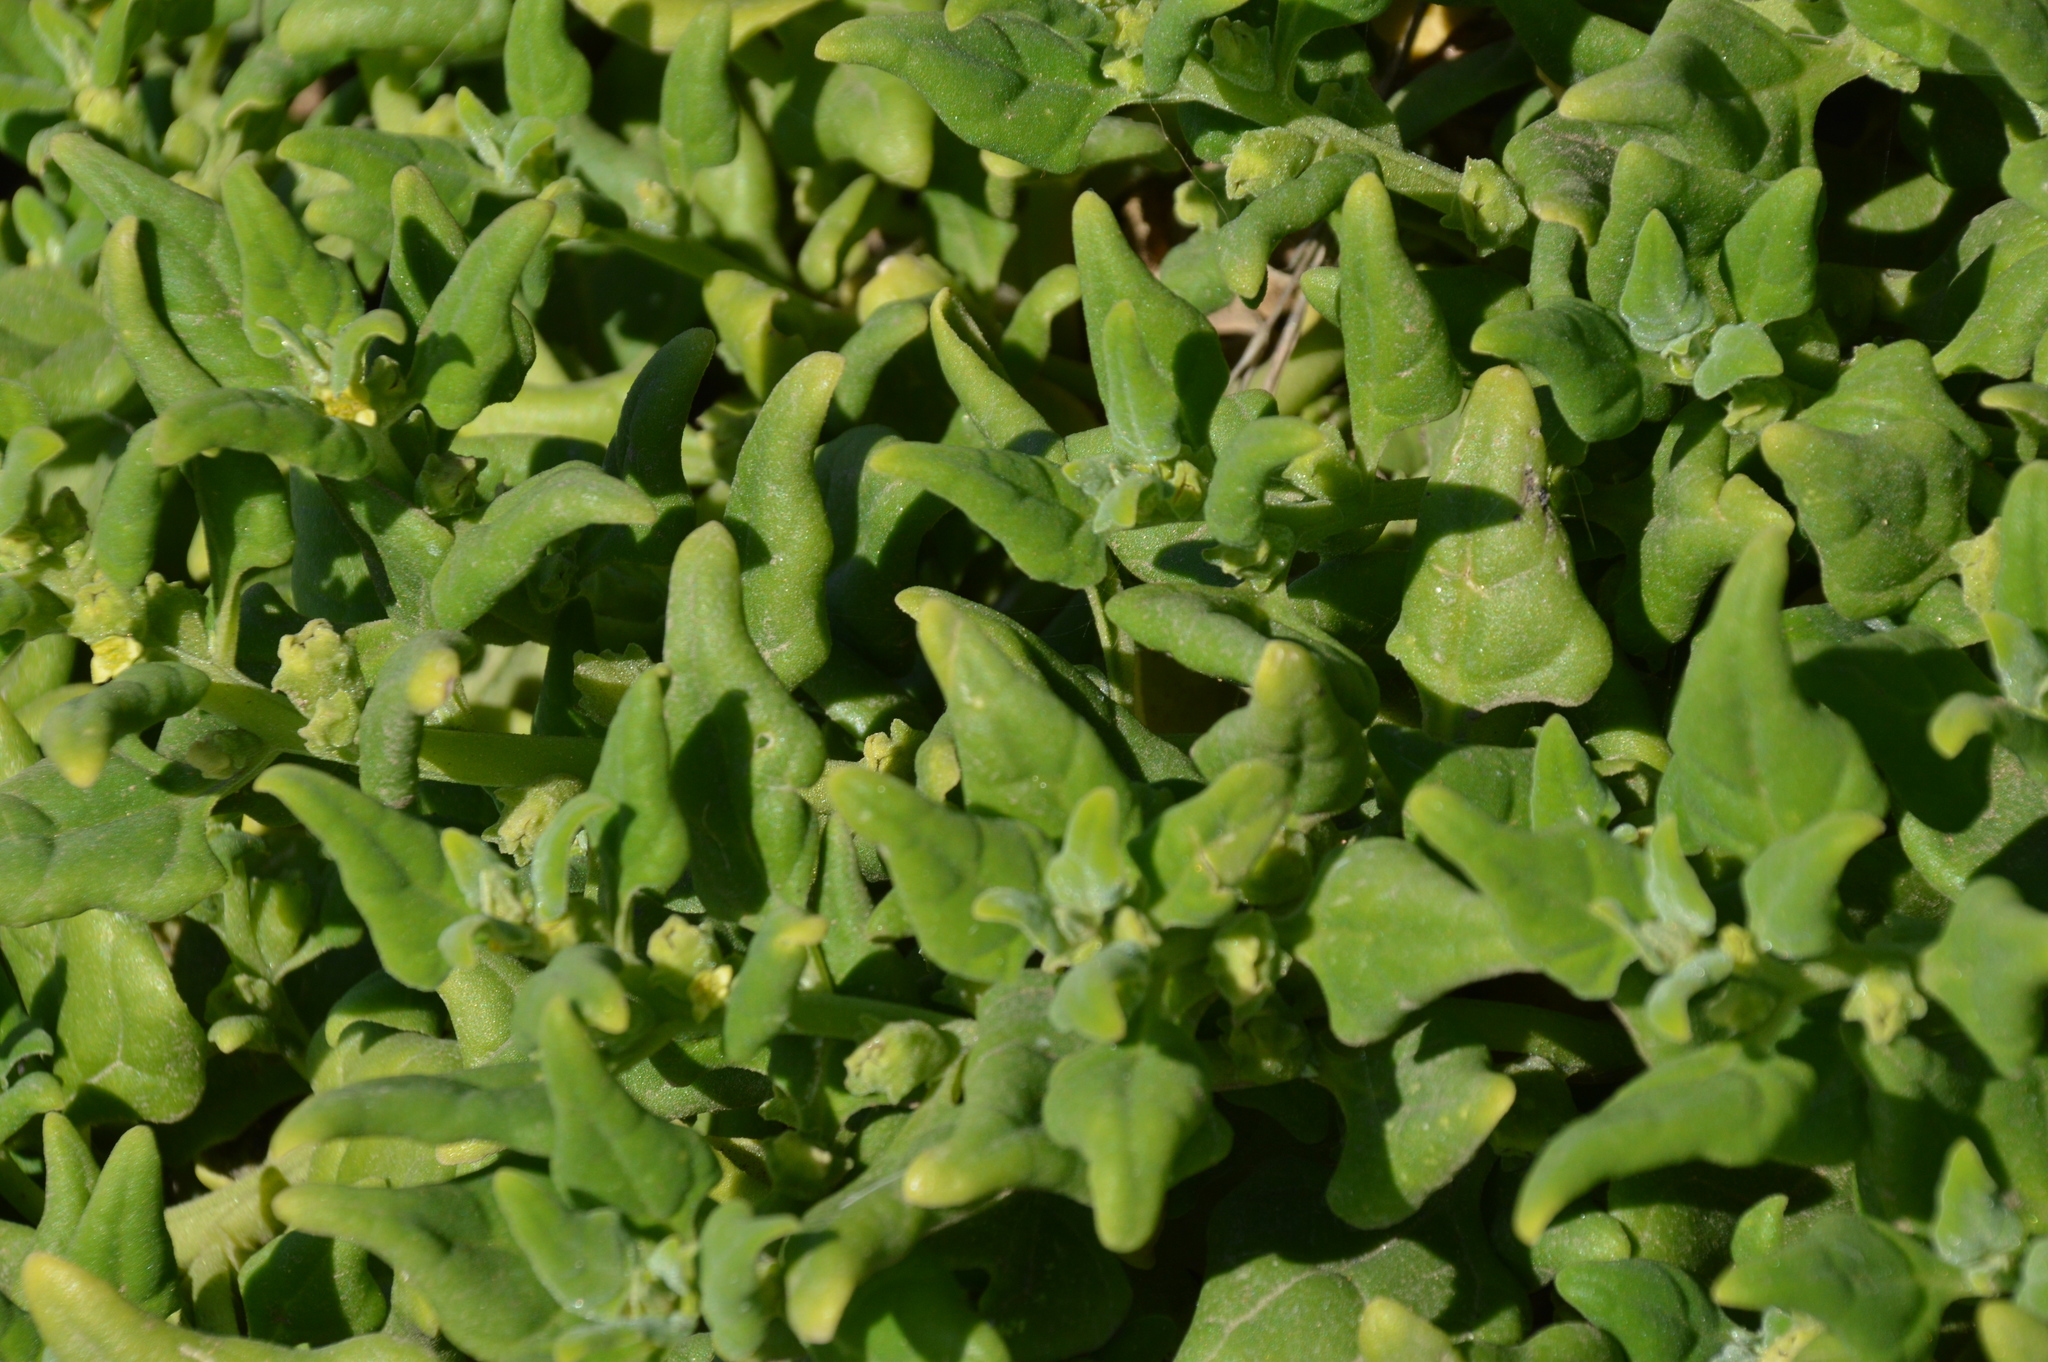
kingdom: Plantae
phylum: Tracheophyta
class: Magnoliopsida
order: Caryophyllales
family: Aizoaceae
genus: Tetragonia
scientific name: Tetragonia tetragonoides
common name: New zealand-spinach
